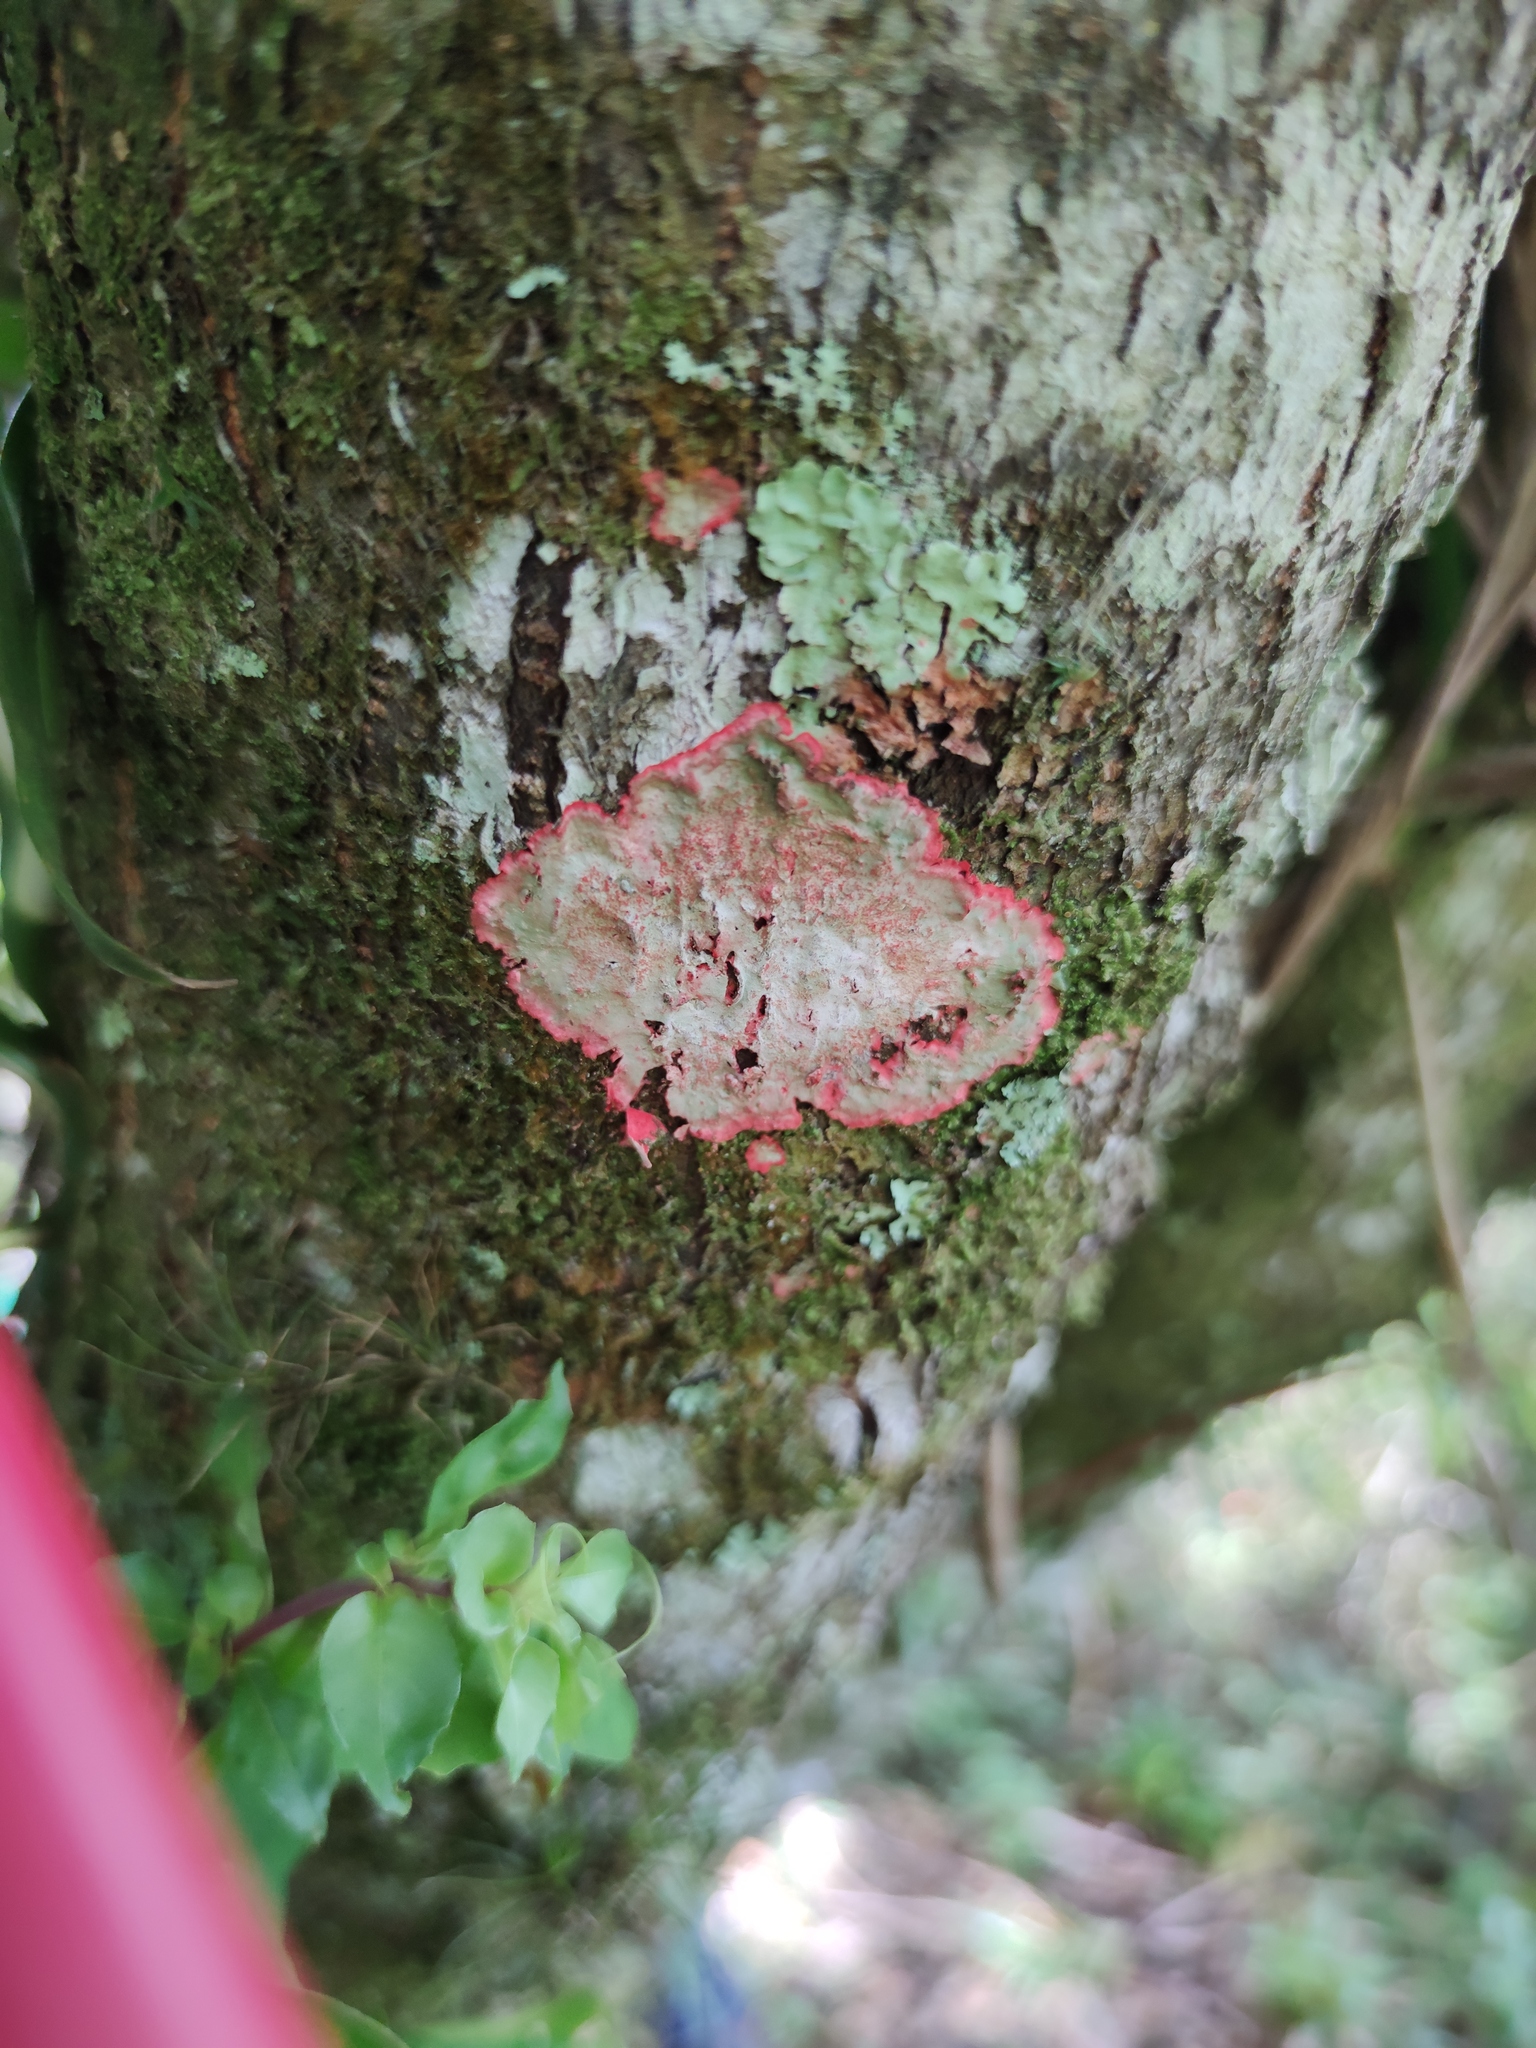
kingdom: Fungi
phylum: Ascomycota
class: Arthoniomycetes
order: Arthoniales
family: Arthoniaceae
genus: Herpothallon
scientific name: Herpothallon rubrocinctum
